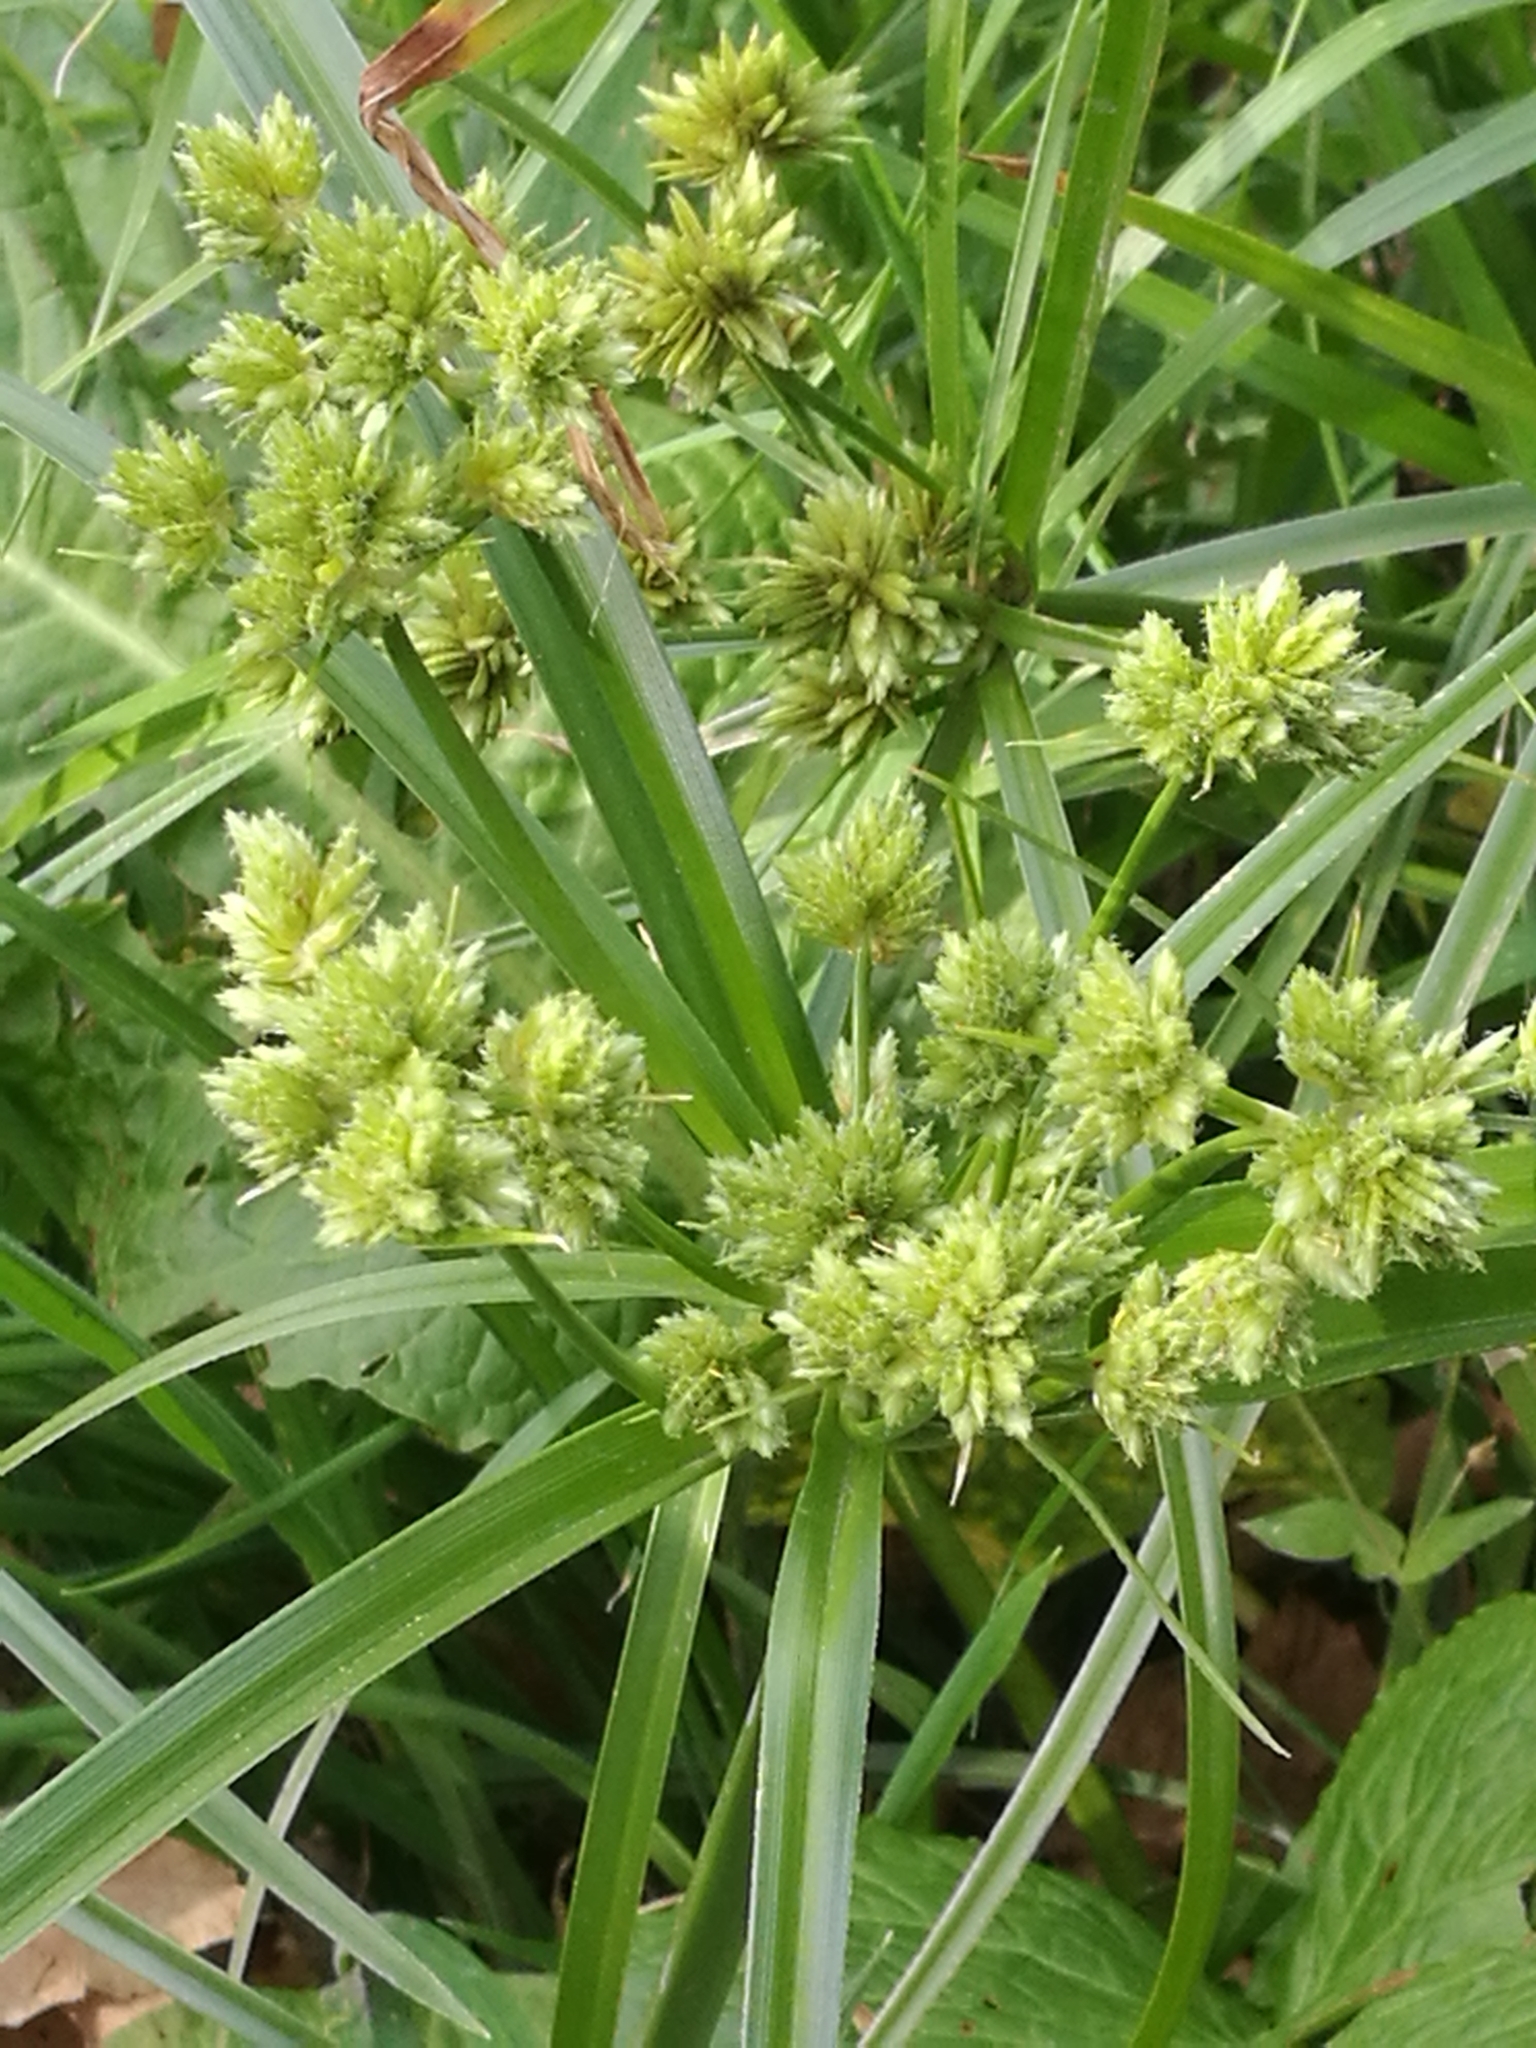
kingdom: Plantae
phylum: Tracheophyta
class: Liliopsida
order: Poales
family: Cyperaceae
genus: Cyperus
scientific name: Cyperus eragrostis
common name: Tall flatsedge
